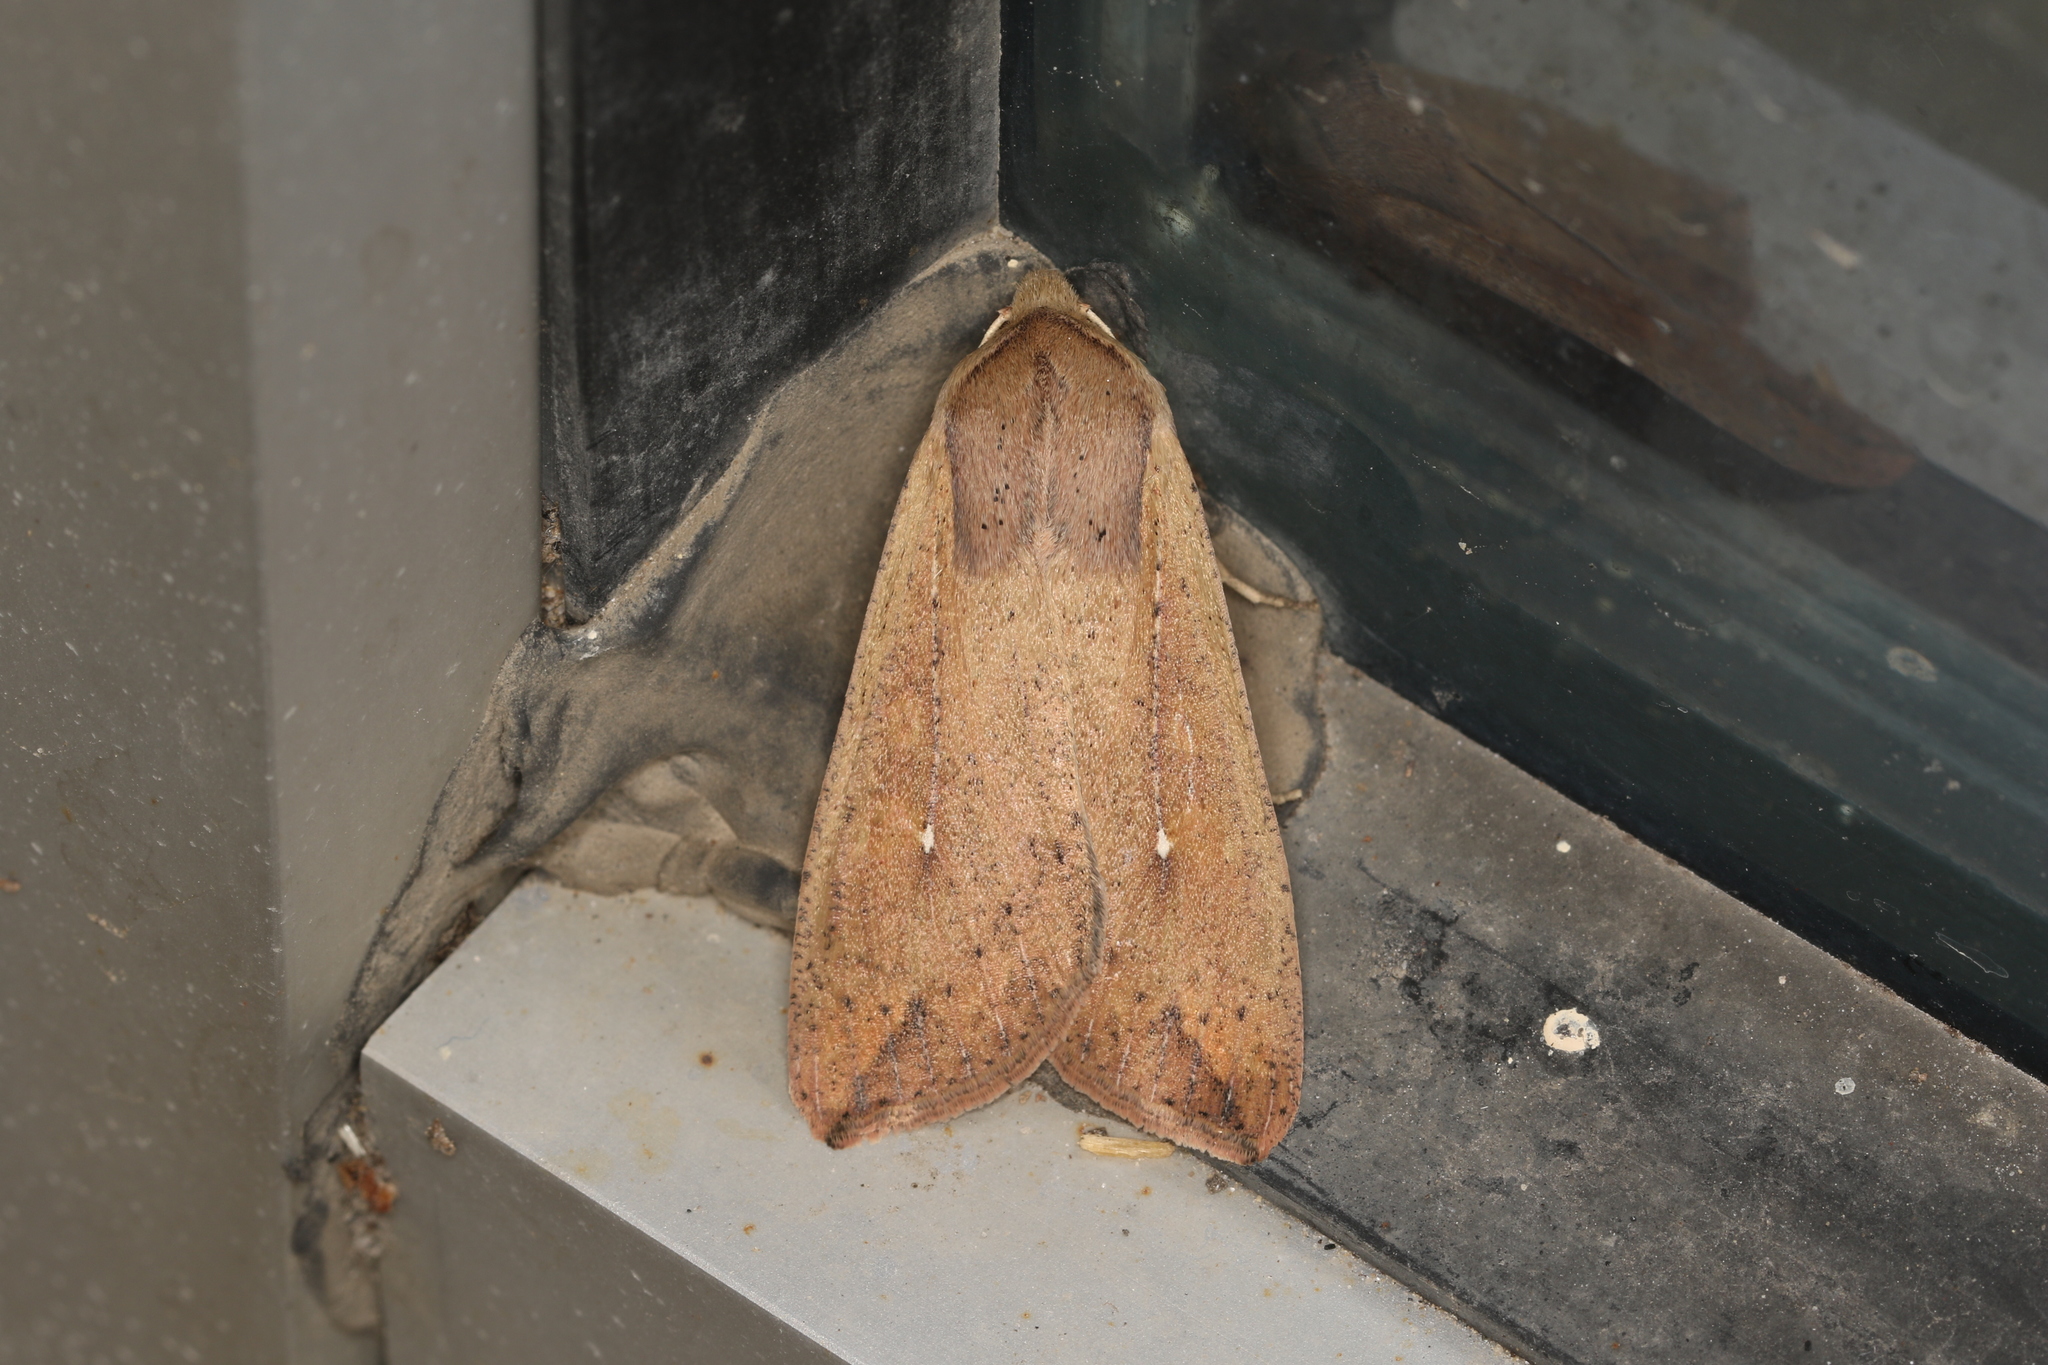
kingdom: Animalia
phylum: Arthropoda
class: Insecta
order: Lepidoptera
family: Noctuidae
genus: Mythimna
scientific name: Mythimna unipuncta
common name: White-speck
